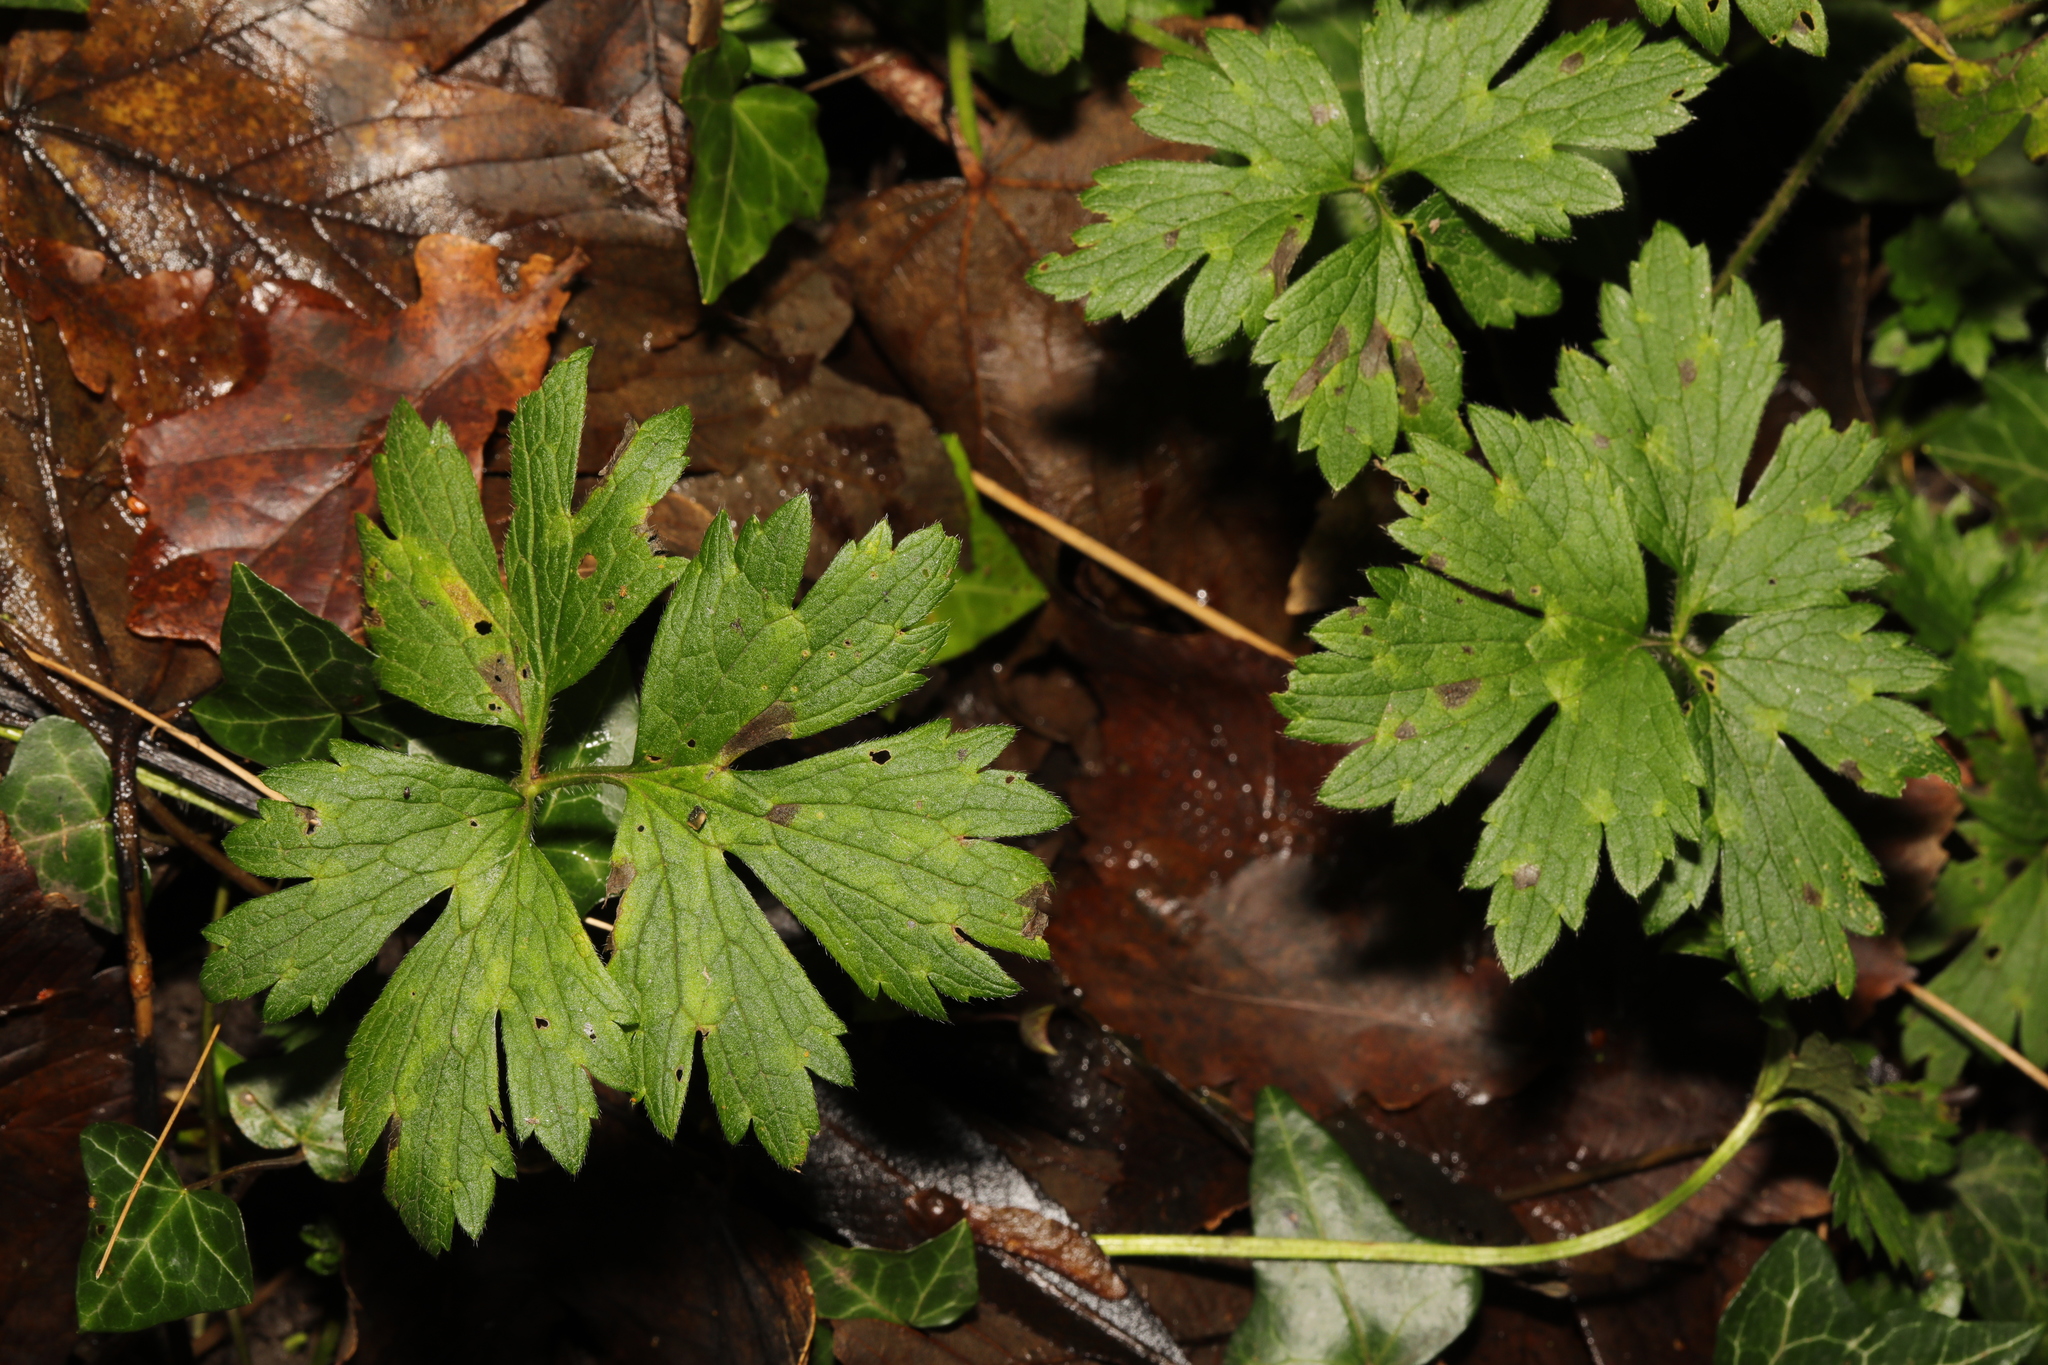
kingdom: Plantae
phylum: Tracheophyta
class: Magnoliopsida
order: Ranunculales
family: Ranunculaceae
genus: Ranunculus
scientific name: Ranunculus repens
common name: Creeping buttercup
